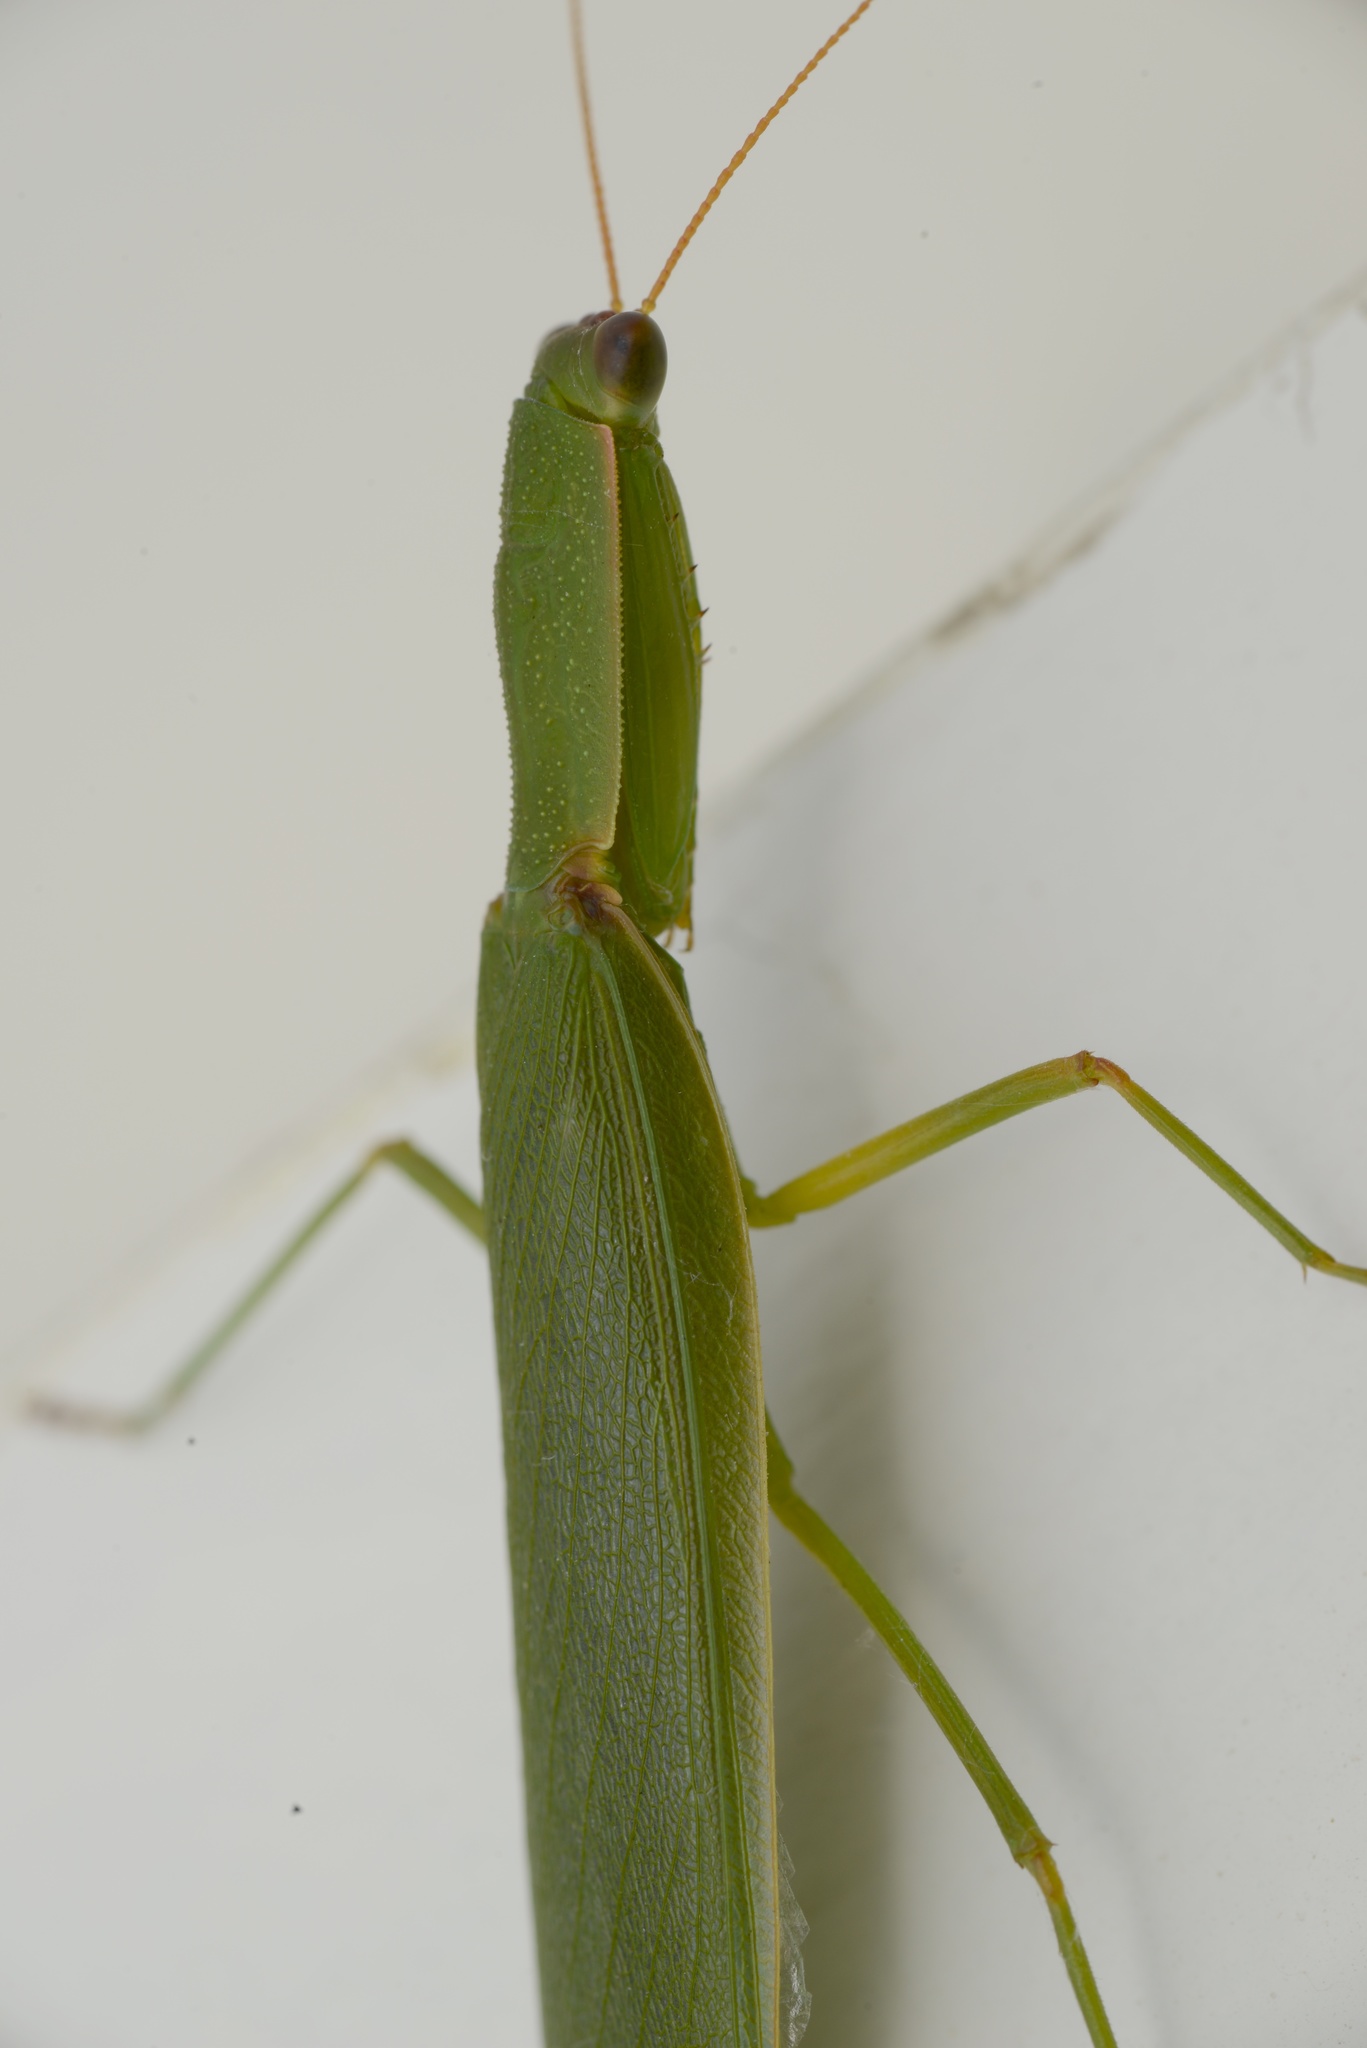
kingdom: Animalia
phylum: Arthropoda
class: Insecta
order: Mantodea
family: Mantidae
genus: Orthodera
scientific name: Orthodera novaezealandiae
